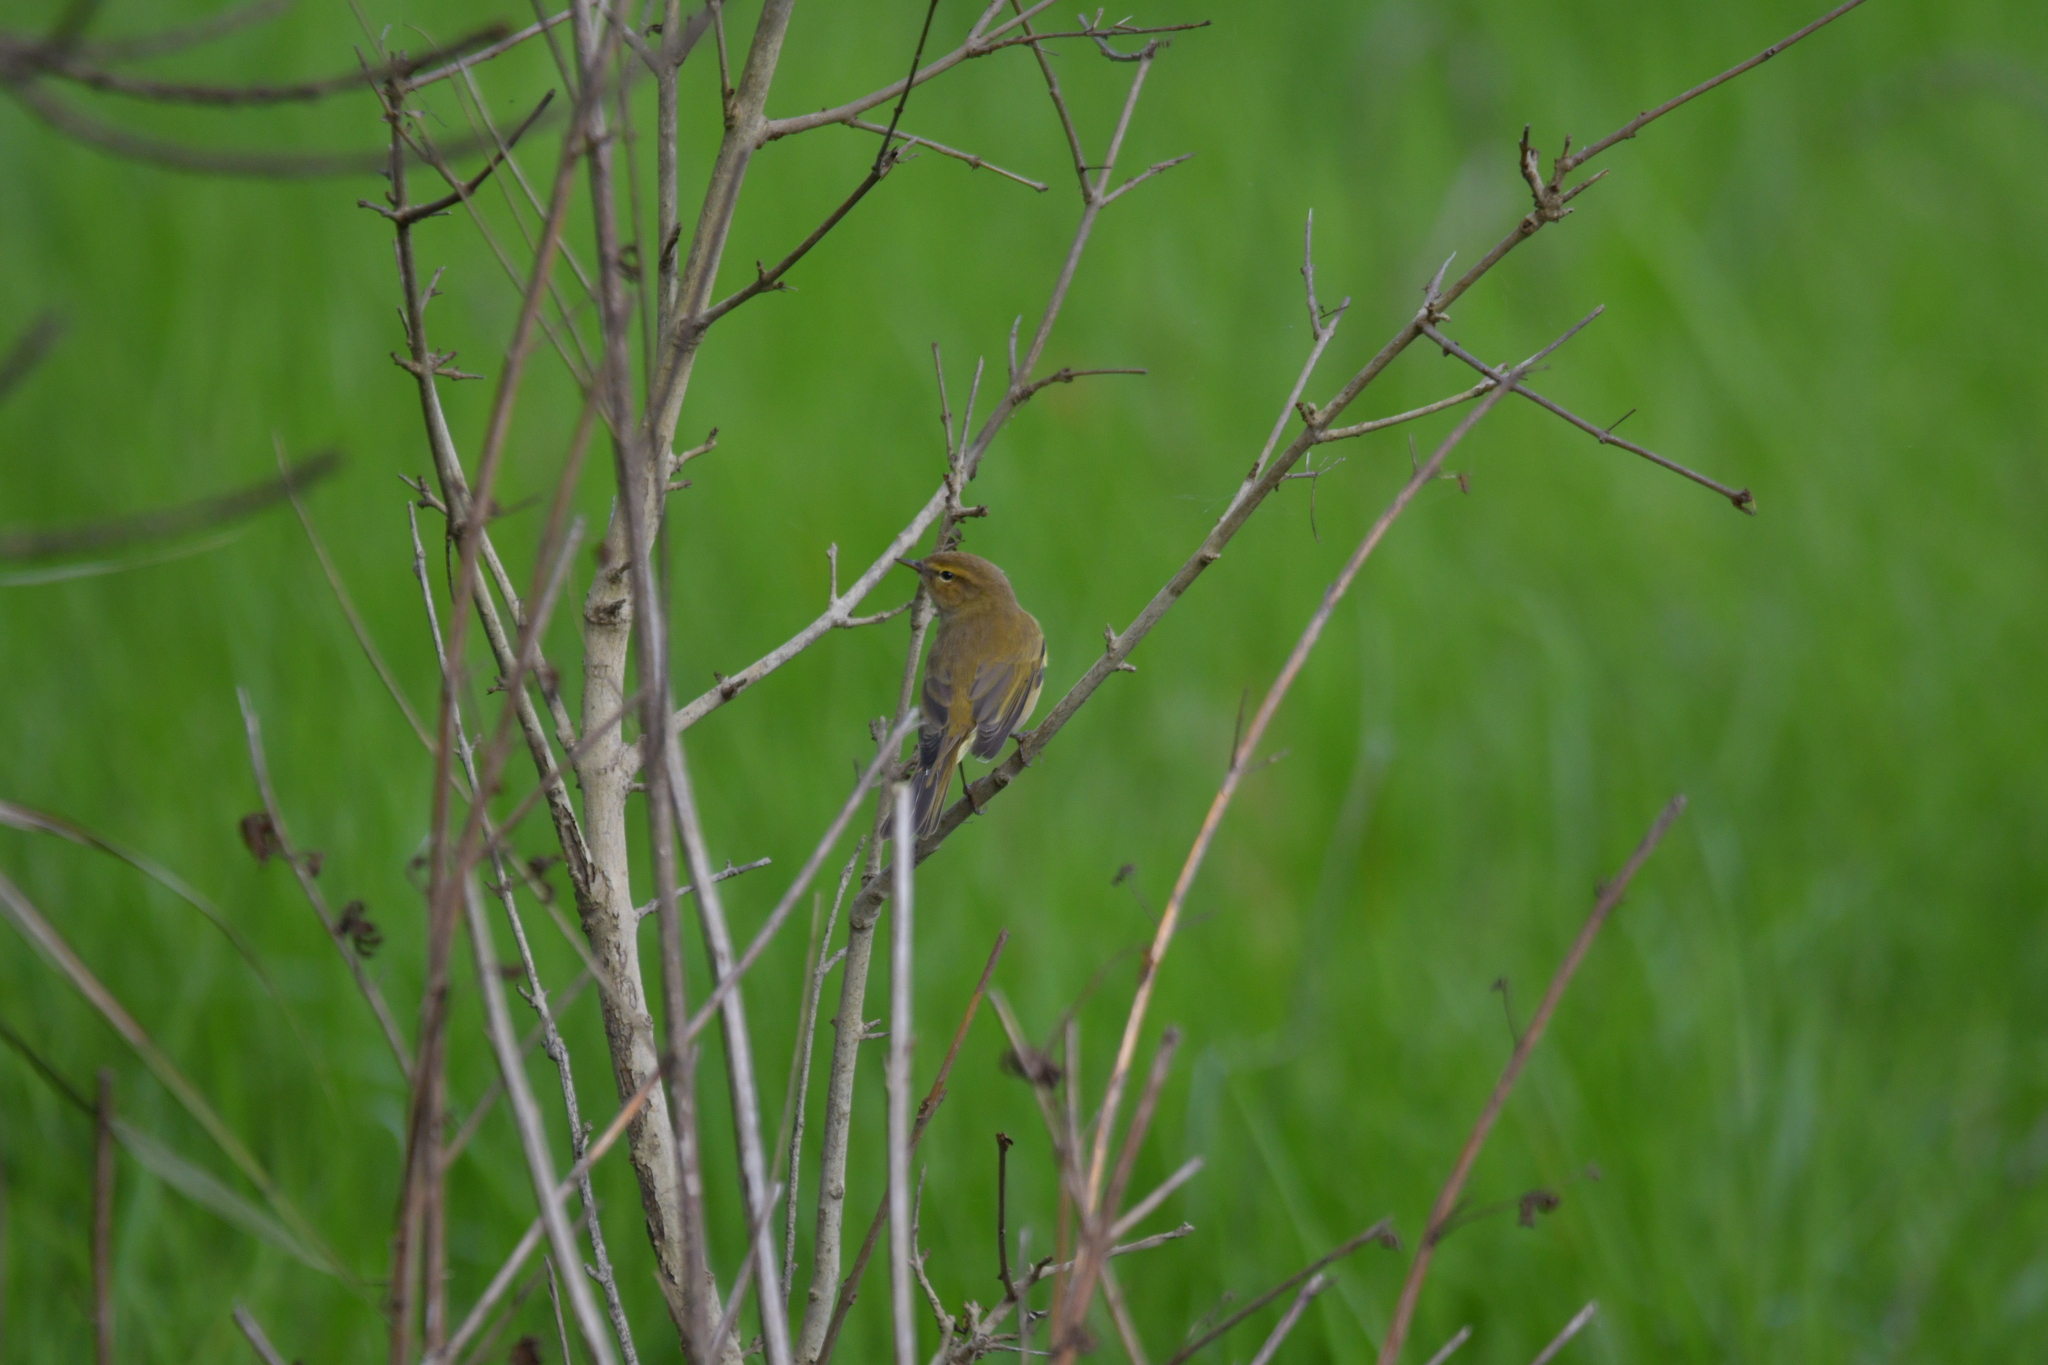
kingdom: Animalia
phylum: Chordata
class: Aves
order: Passeriformes
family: Phylloscopidae
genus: Phylloscopus
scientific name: Phylloscopus collybita
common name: Common chiffchaff
